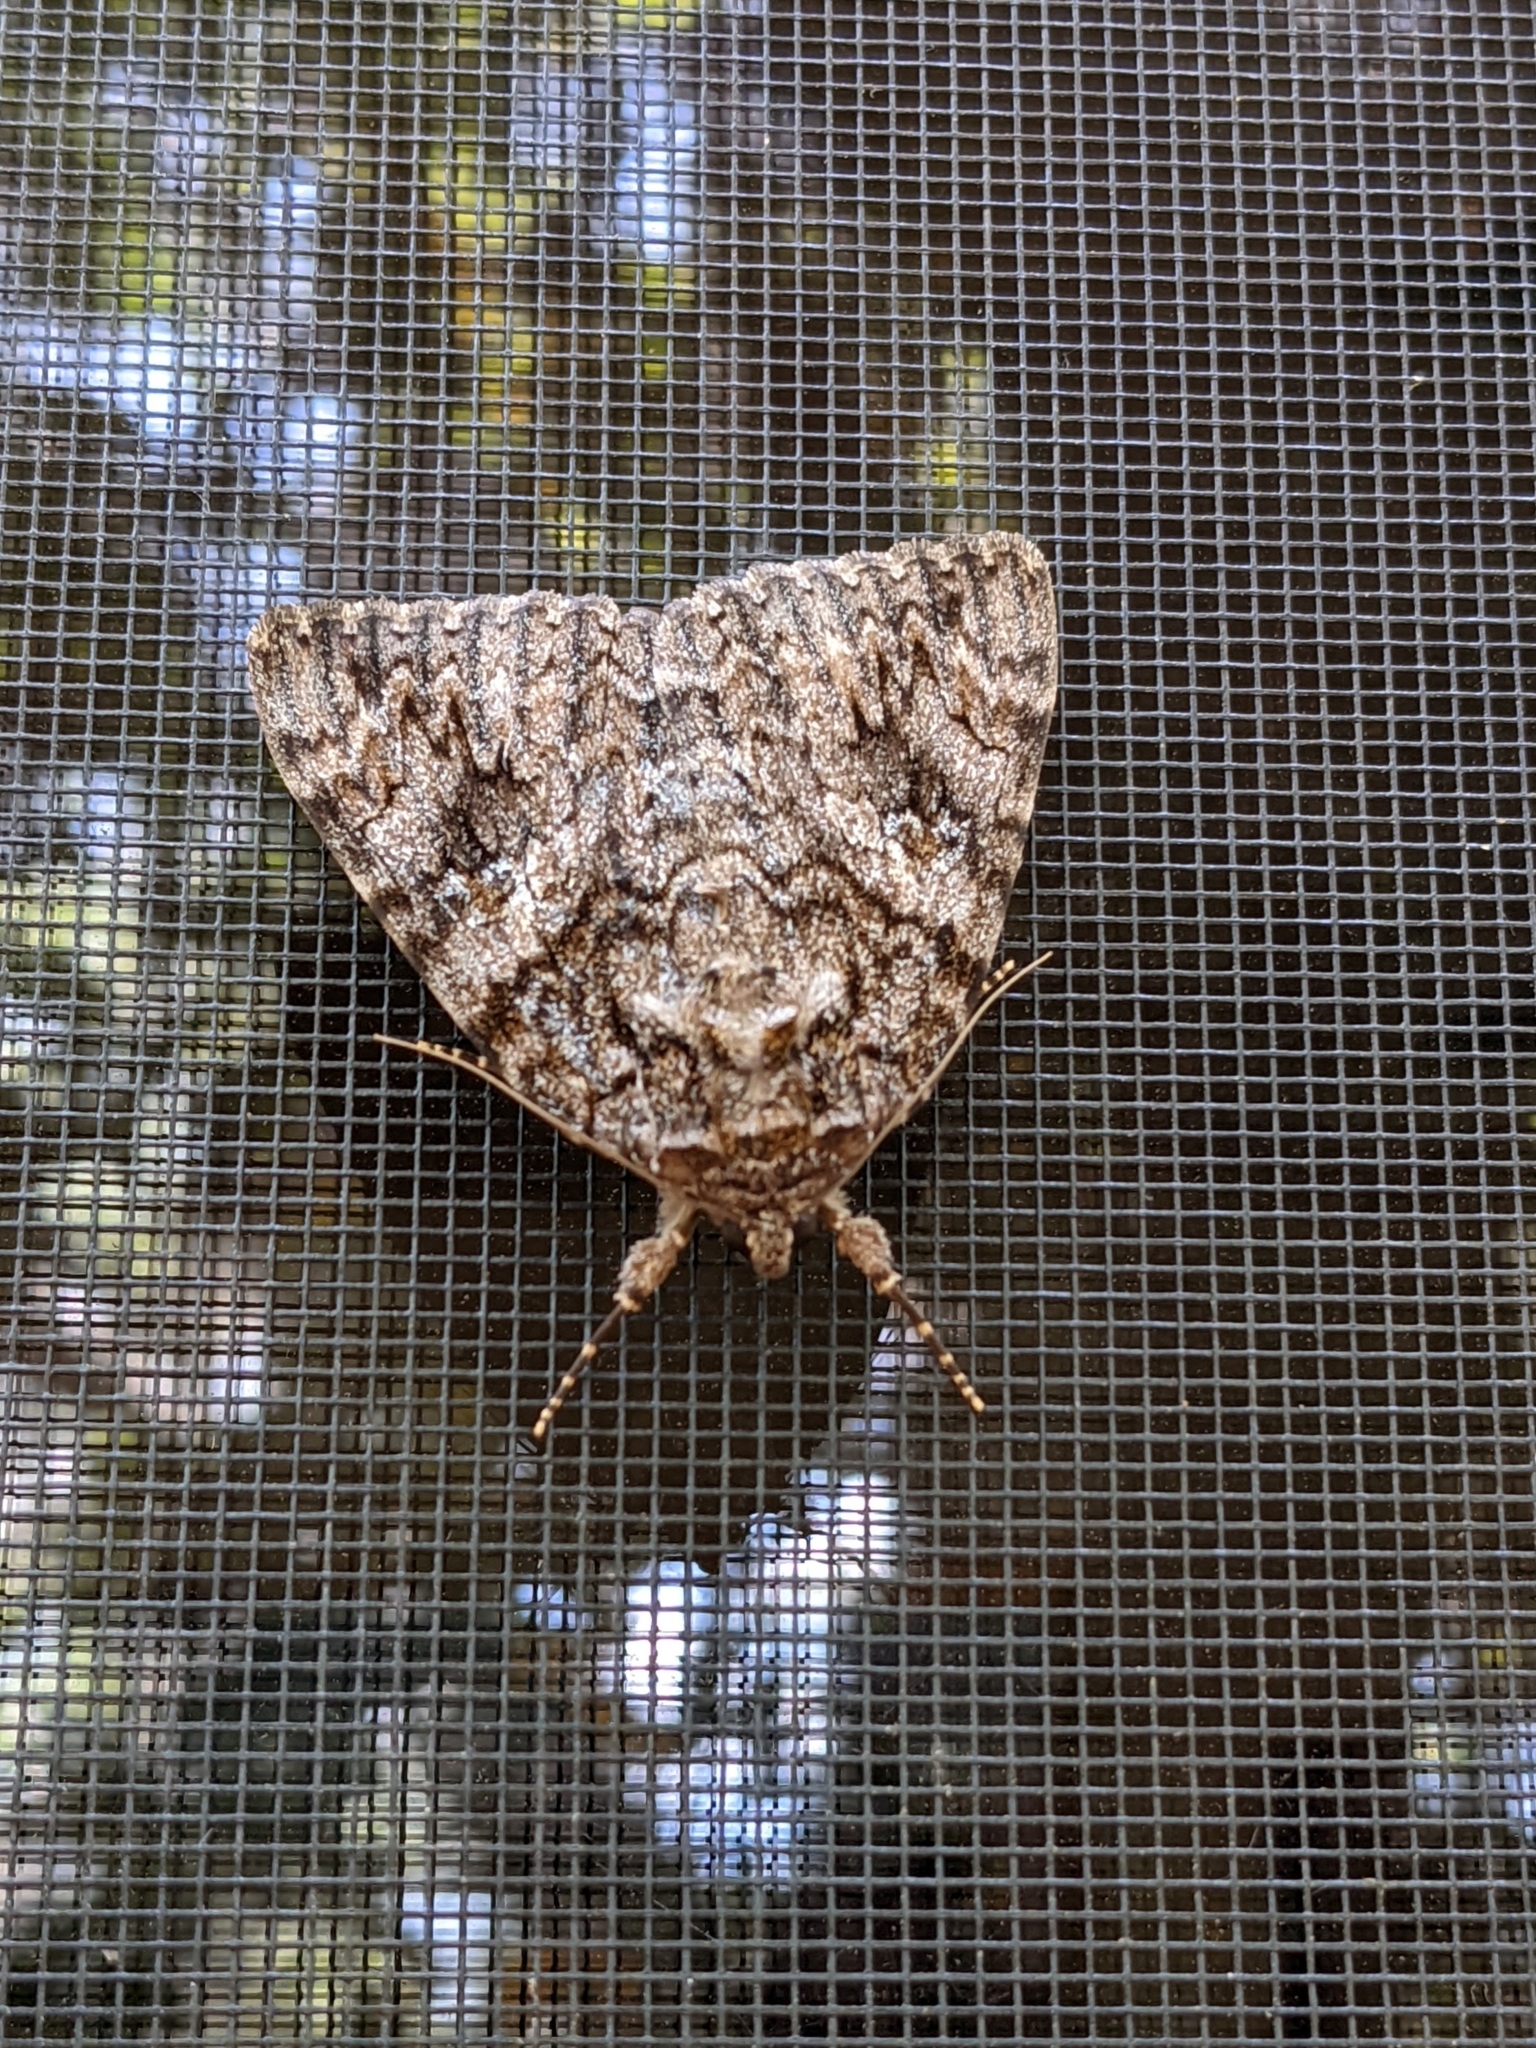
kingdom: Animalia
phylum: Arthropoda
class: Insecta
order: Lepidoptera
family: Erebidae
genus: Catocala
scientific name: Catocala umbrosa
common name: Umber underwing
